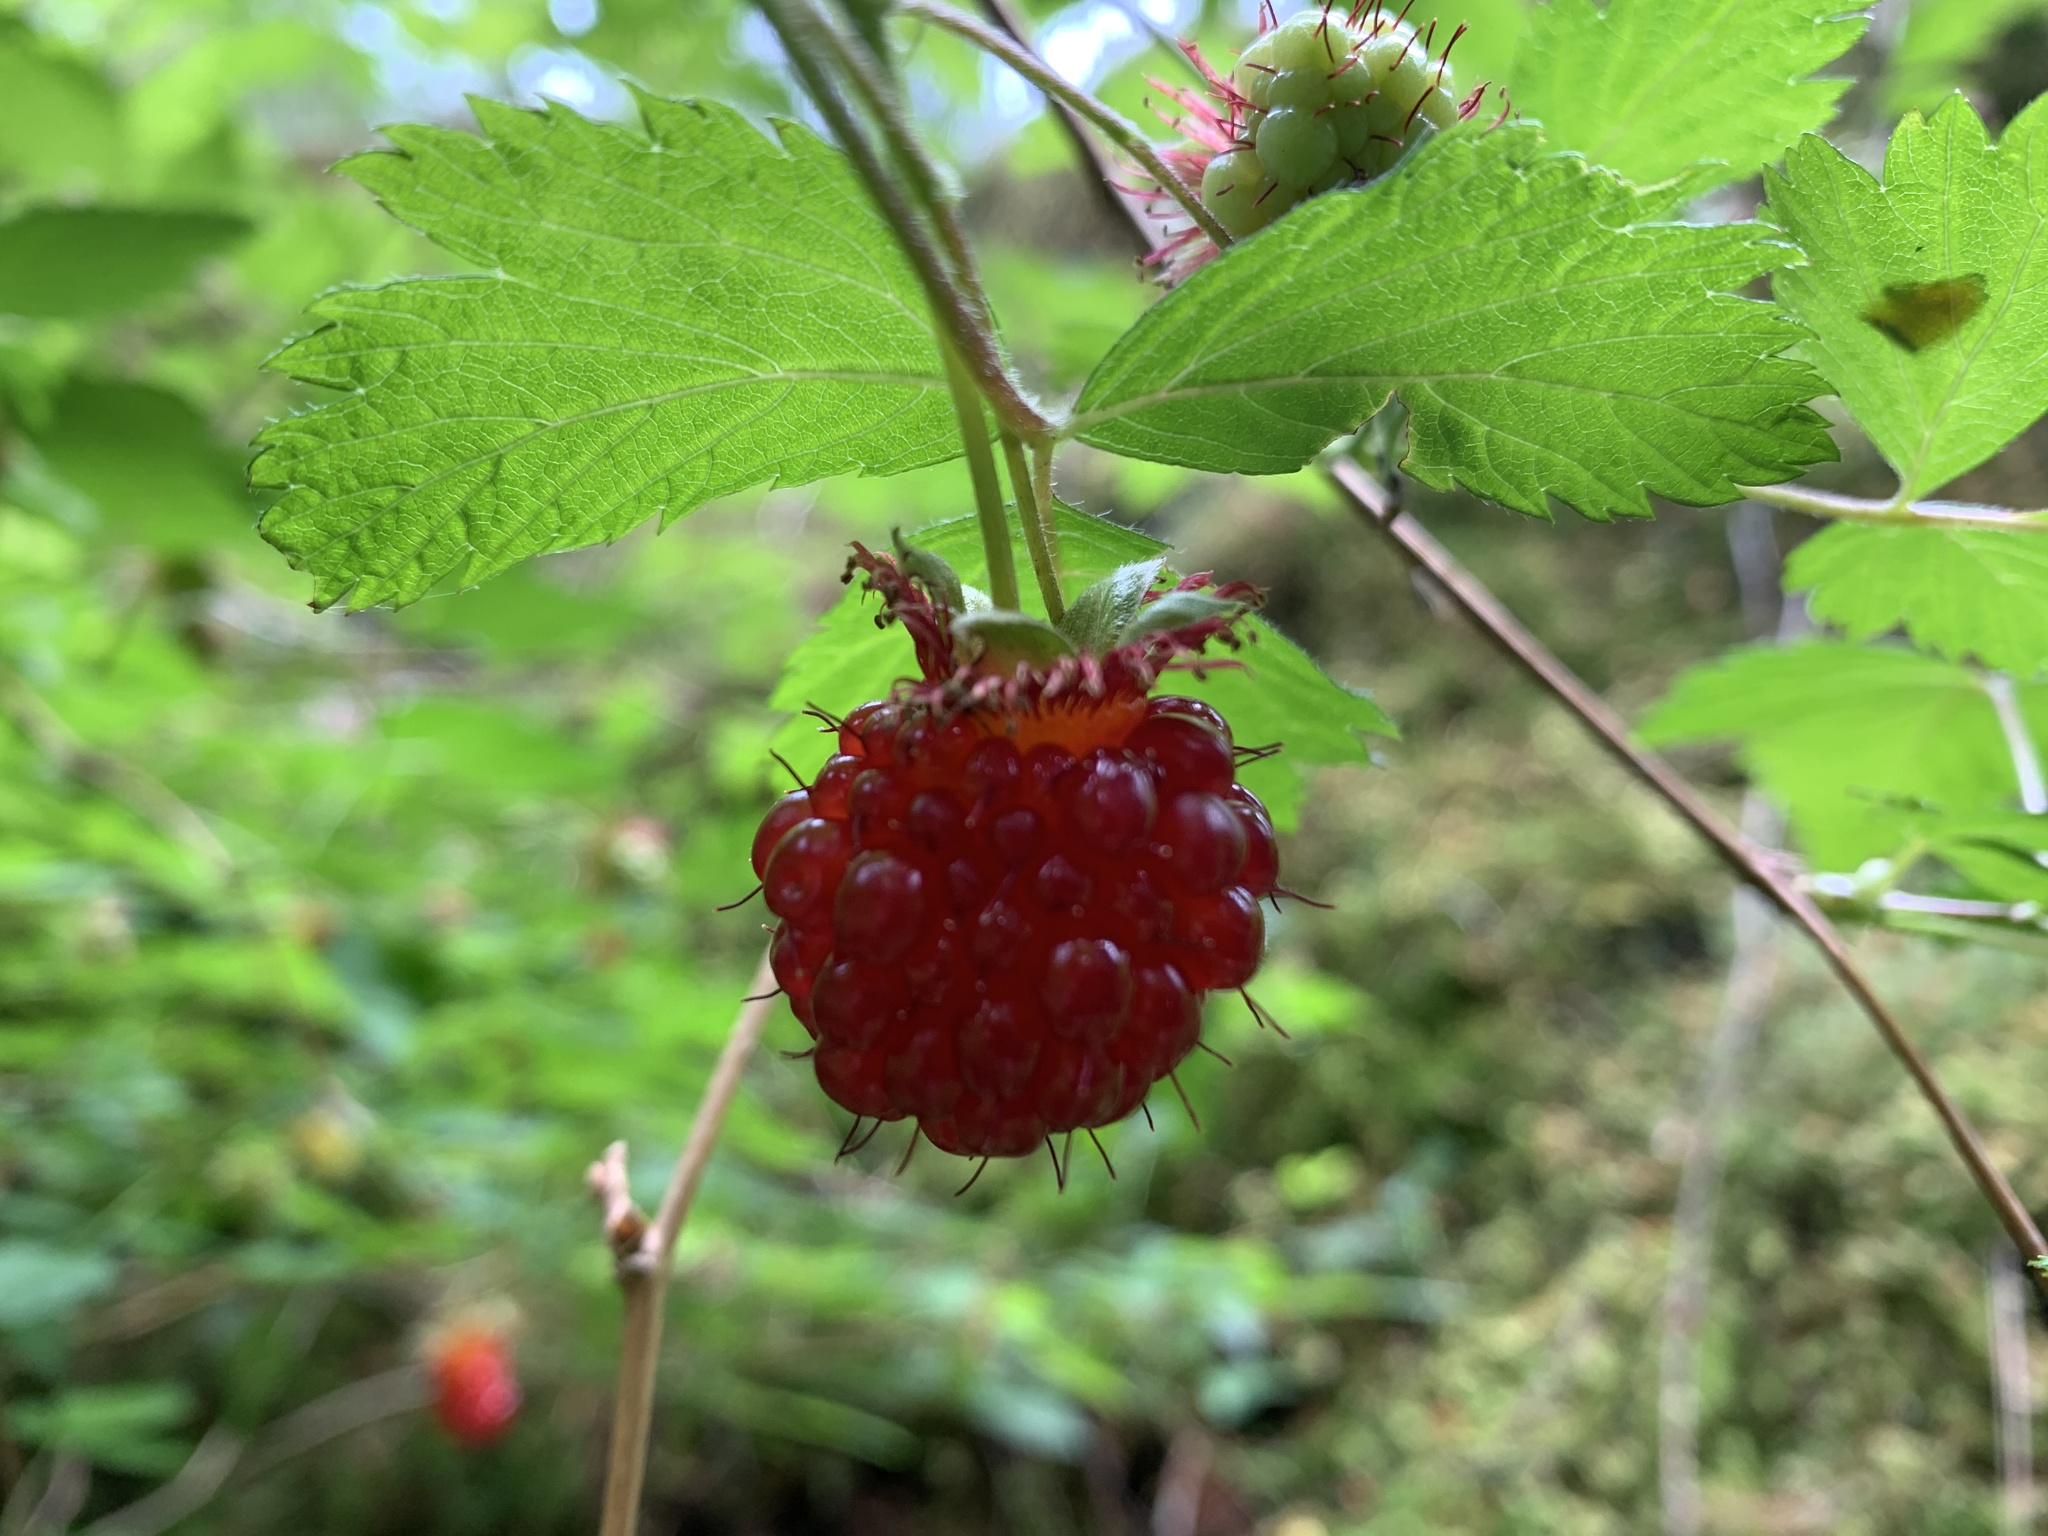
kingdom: Plantae
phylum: Tracheophyta
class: Magnoliopsida
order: Rosales
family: Rosaceae
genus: Rubus
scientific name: Rubus spectabilis
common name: Salmonberry
